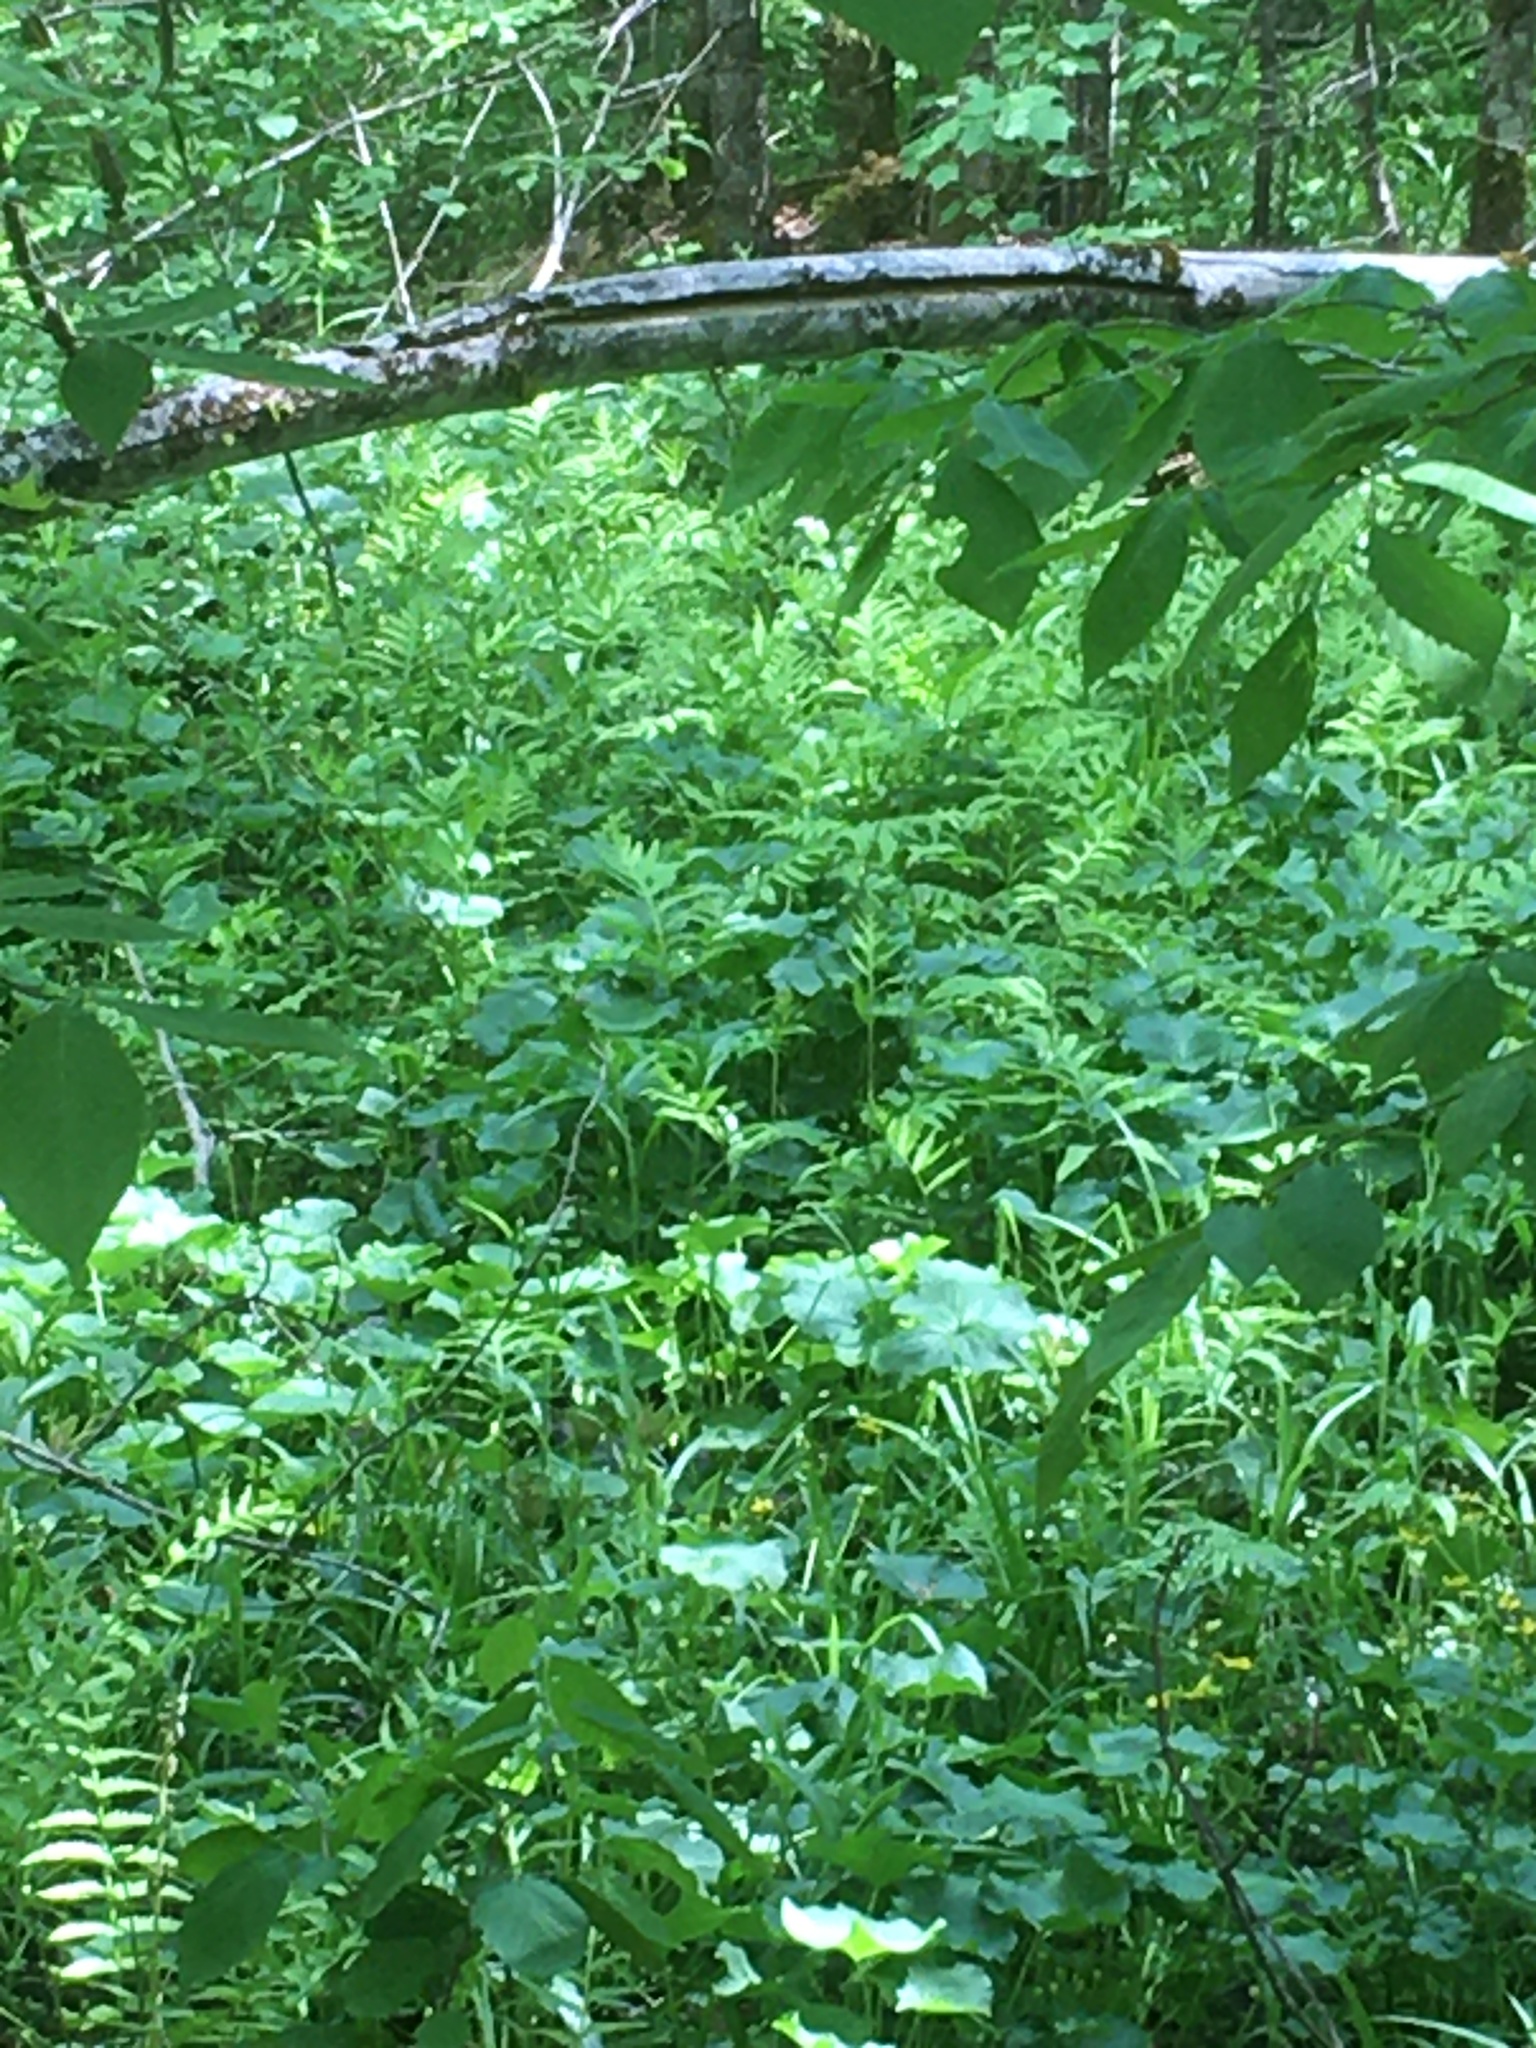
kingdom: Plantae
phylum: Tracheophyta
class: Polypodiopsida
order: Polypodiales
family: Onocleaceae
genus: Onoclea
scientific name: Onoclea sensibilis
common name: Sensitive fern
